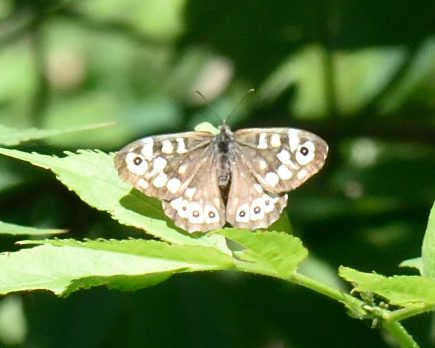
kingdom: Animalia
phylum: Arthropoda
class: Insecta
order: Lepidoptera
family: Nymphalidae
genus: Pararge
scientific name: Pararge aegeria
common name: Speckled wood
